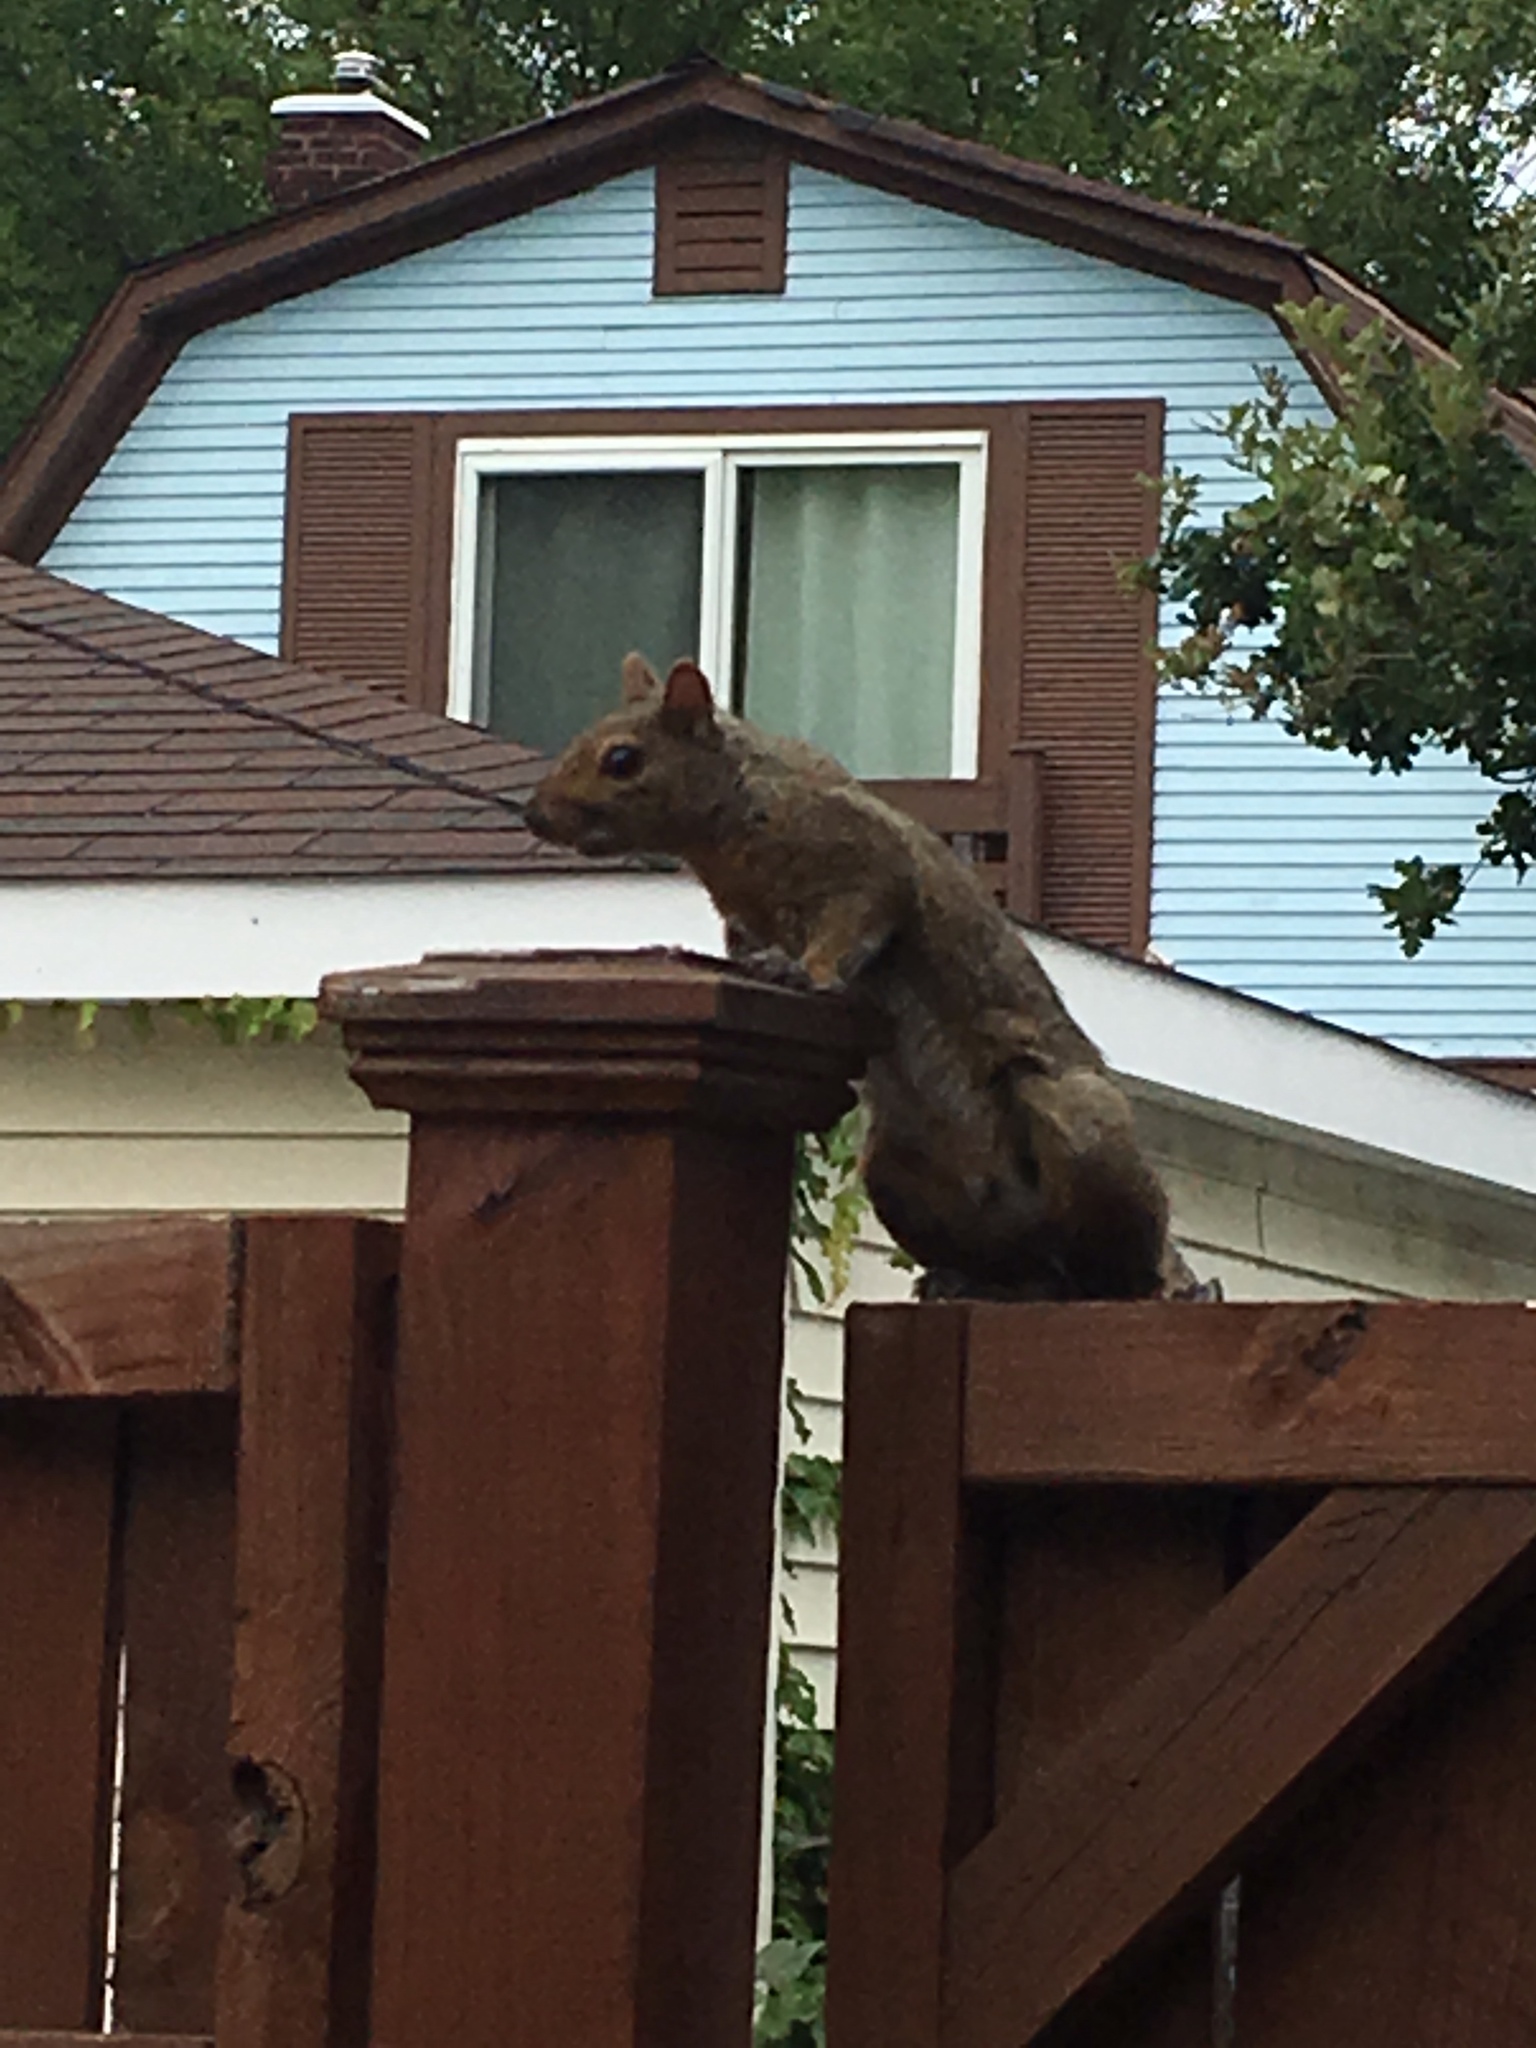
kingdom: Animalia
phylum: Chordata
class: Mammalia
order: Rodentia
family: Sciuridae
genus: Sciurus
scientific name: Sciurus carolinensis
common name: Eastern gray squirrel
